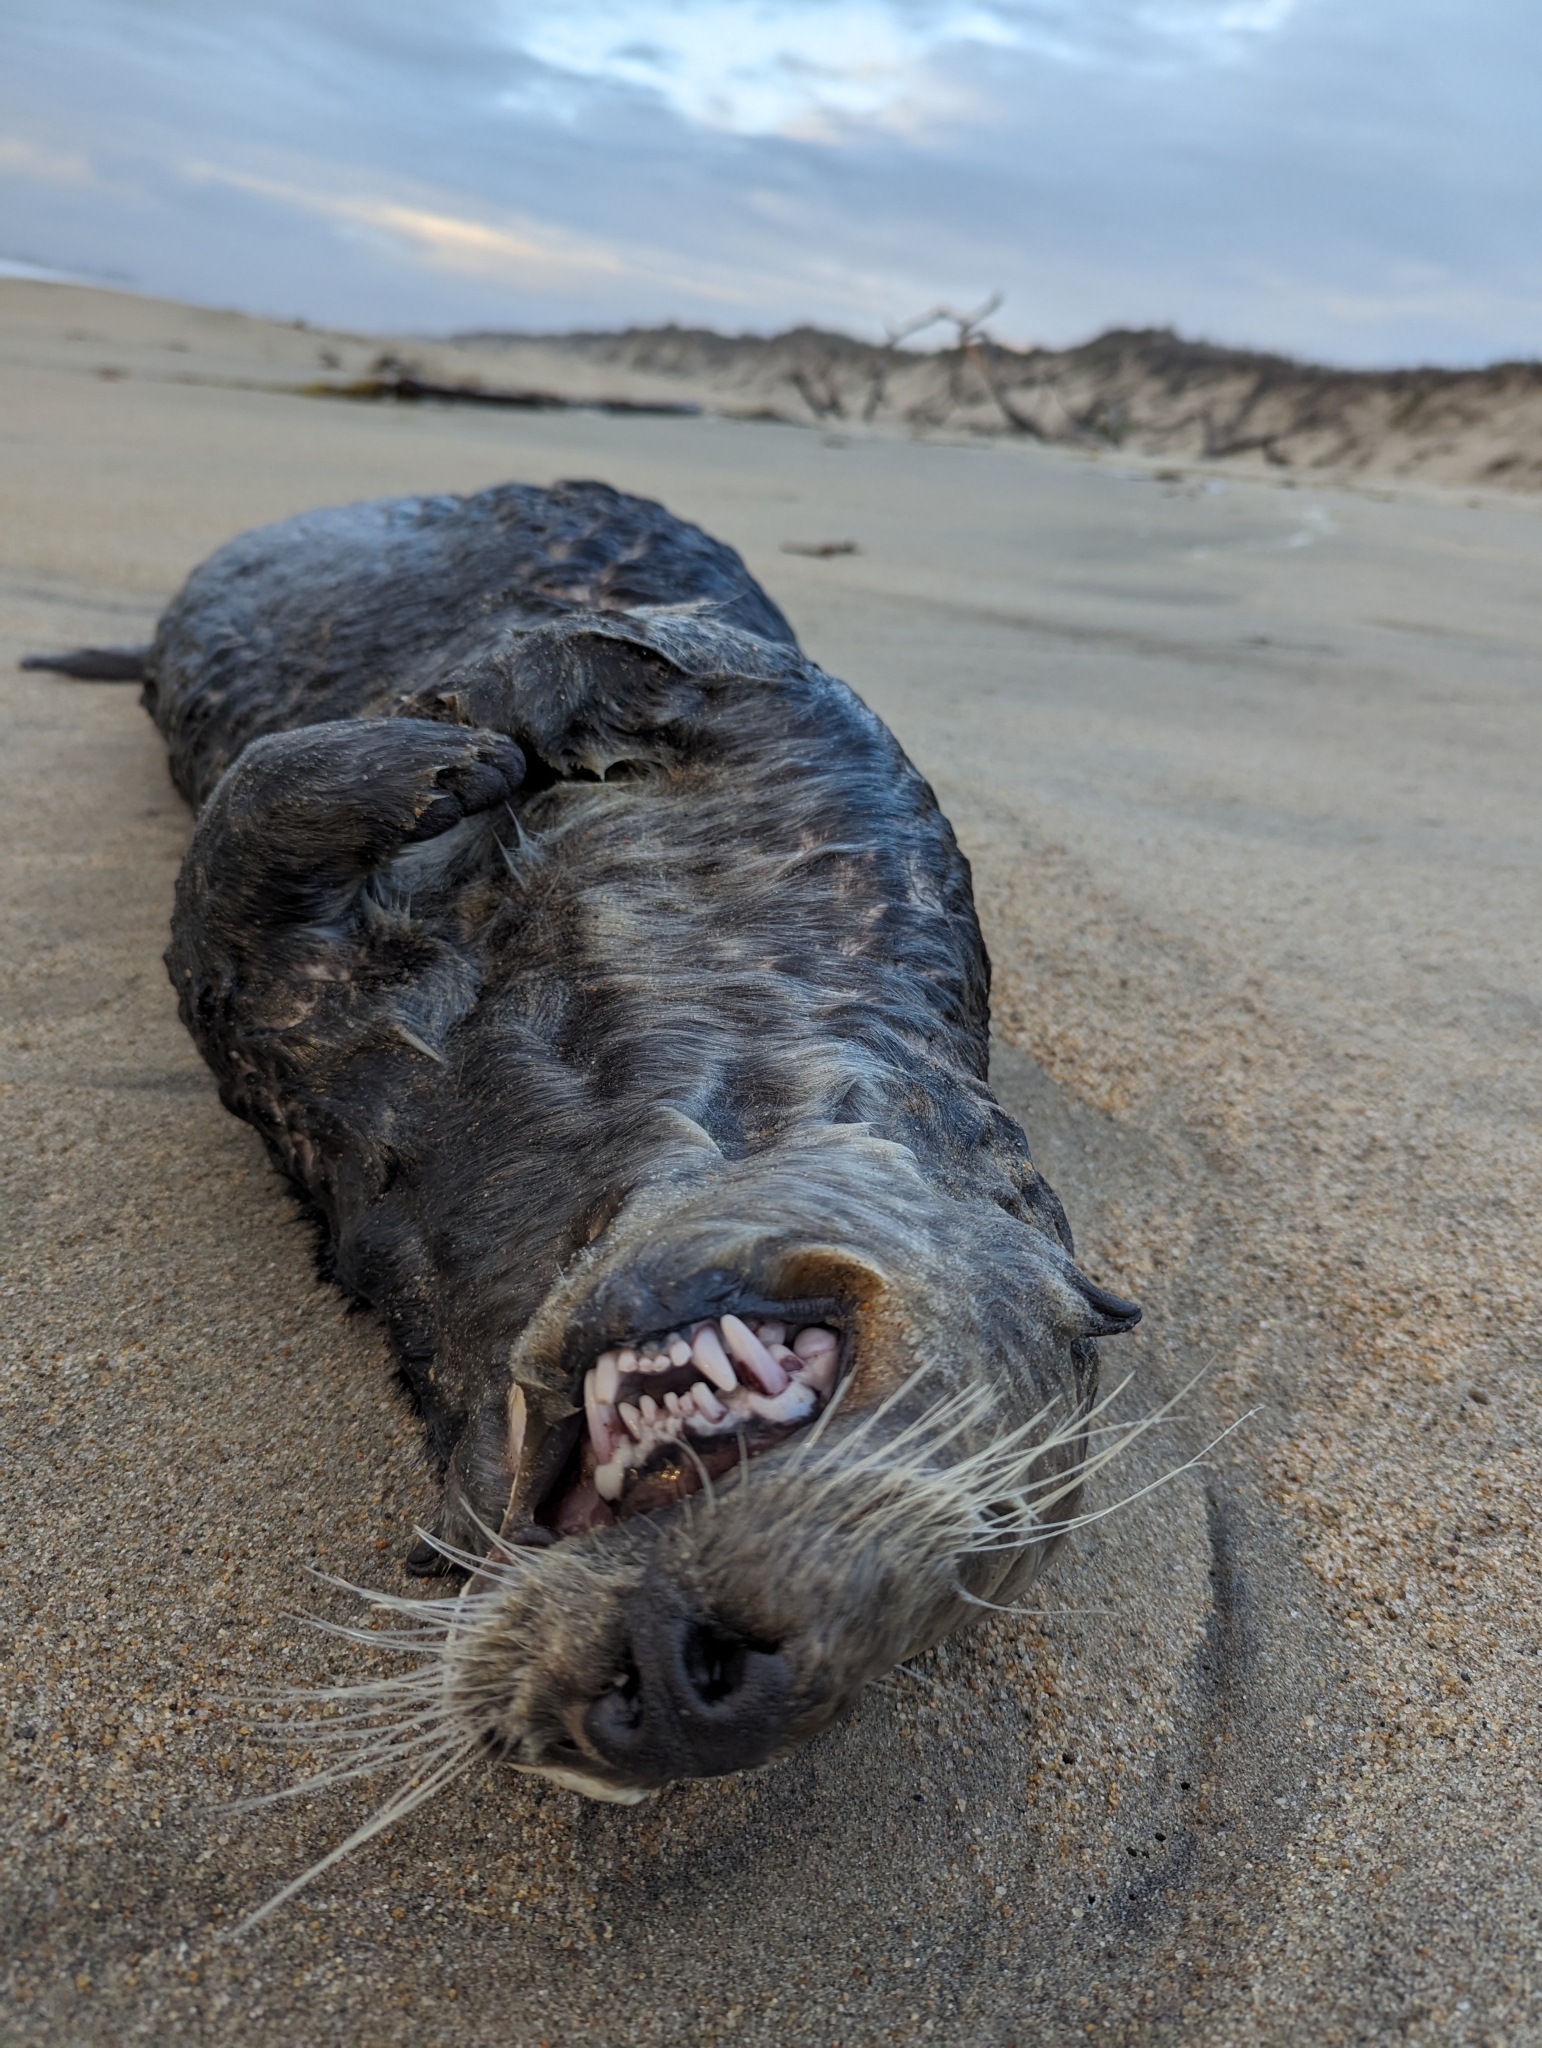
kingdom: Animalia
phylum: Chordata
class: Mammalia
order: Carnivora
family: Mustelidae
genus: Enhydra
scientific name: Enhydra lutris
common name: Sea otter
